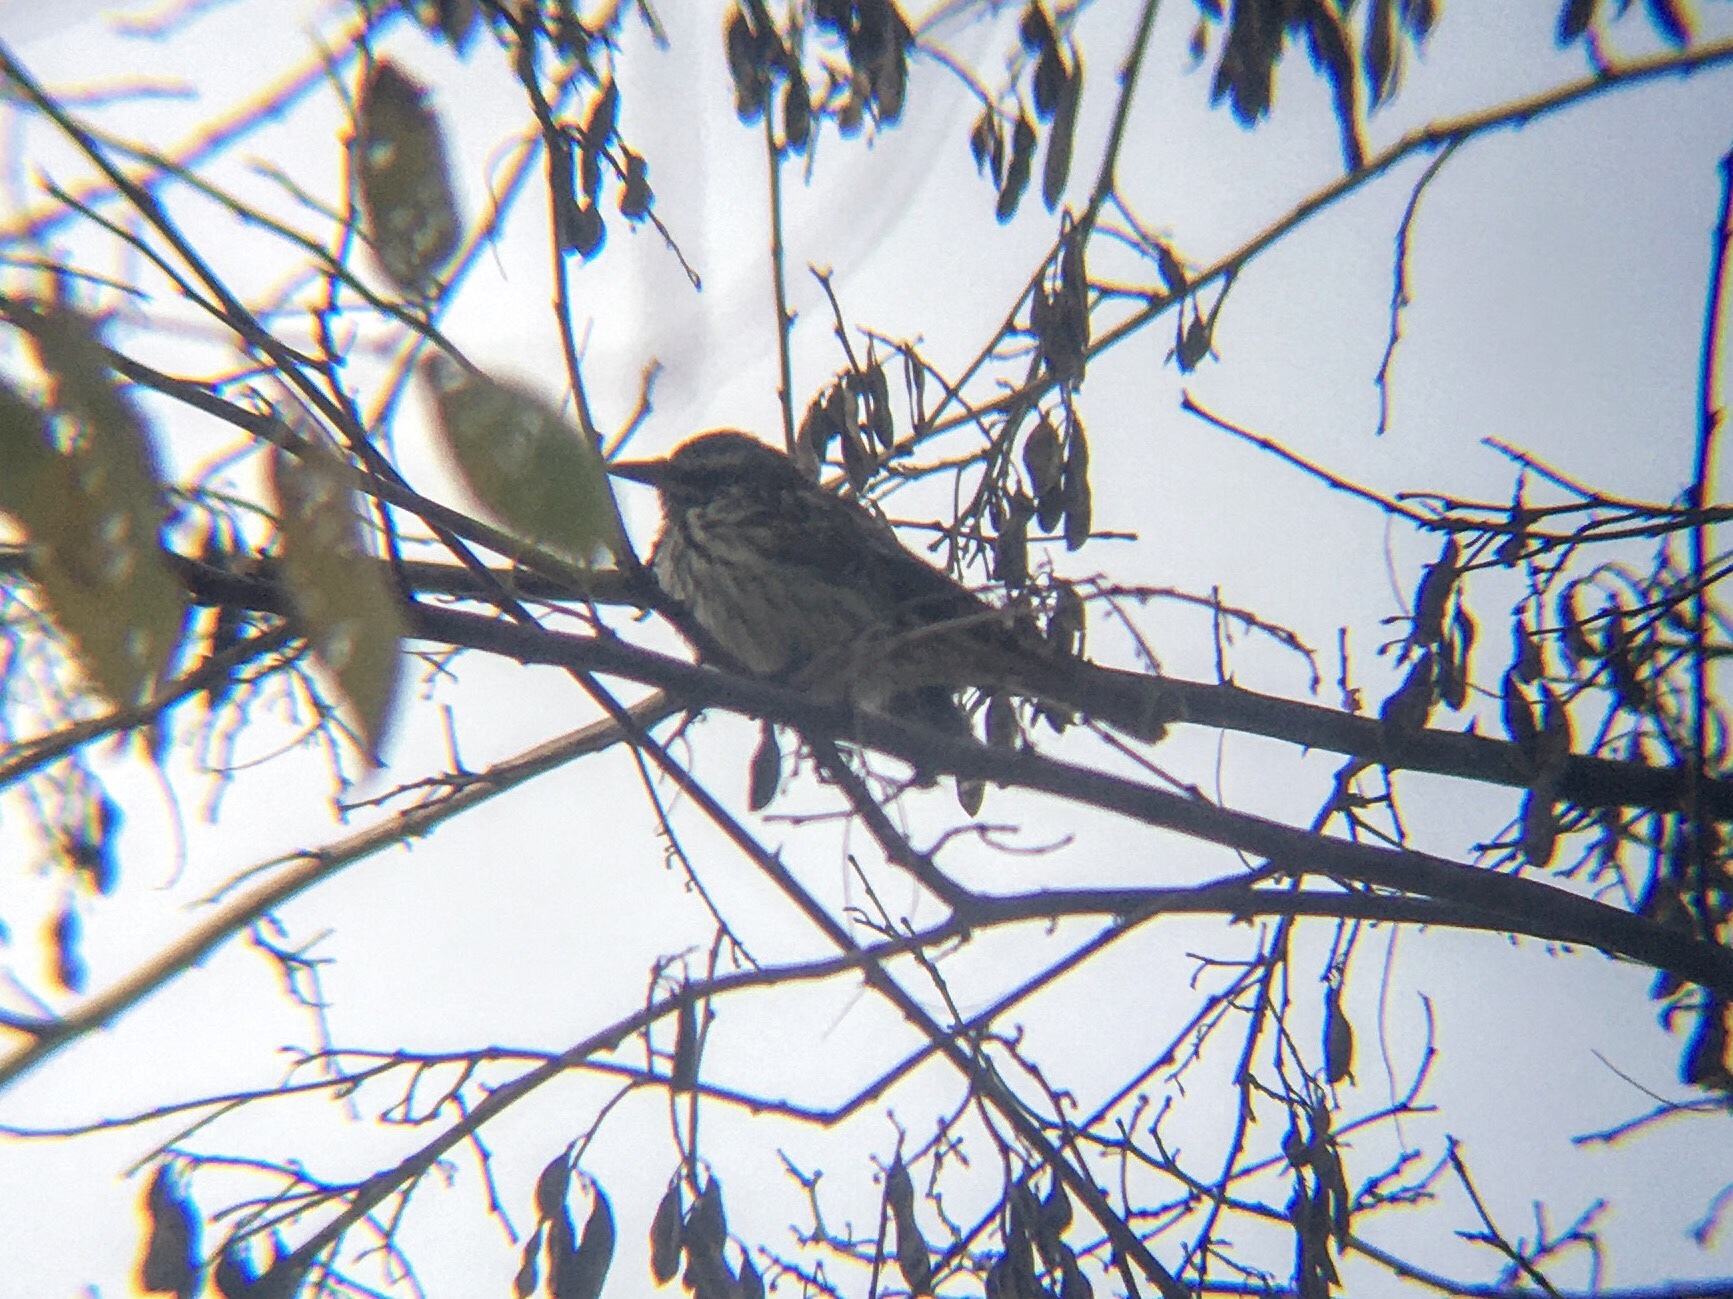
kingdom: Animalia
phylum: Chordata
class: Aves
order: Passeriformes
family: Tyrannidae
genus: Myiodynastes
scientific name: Myiodynastes maculatus
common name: Streaked flycatcher
